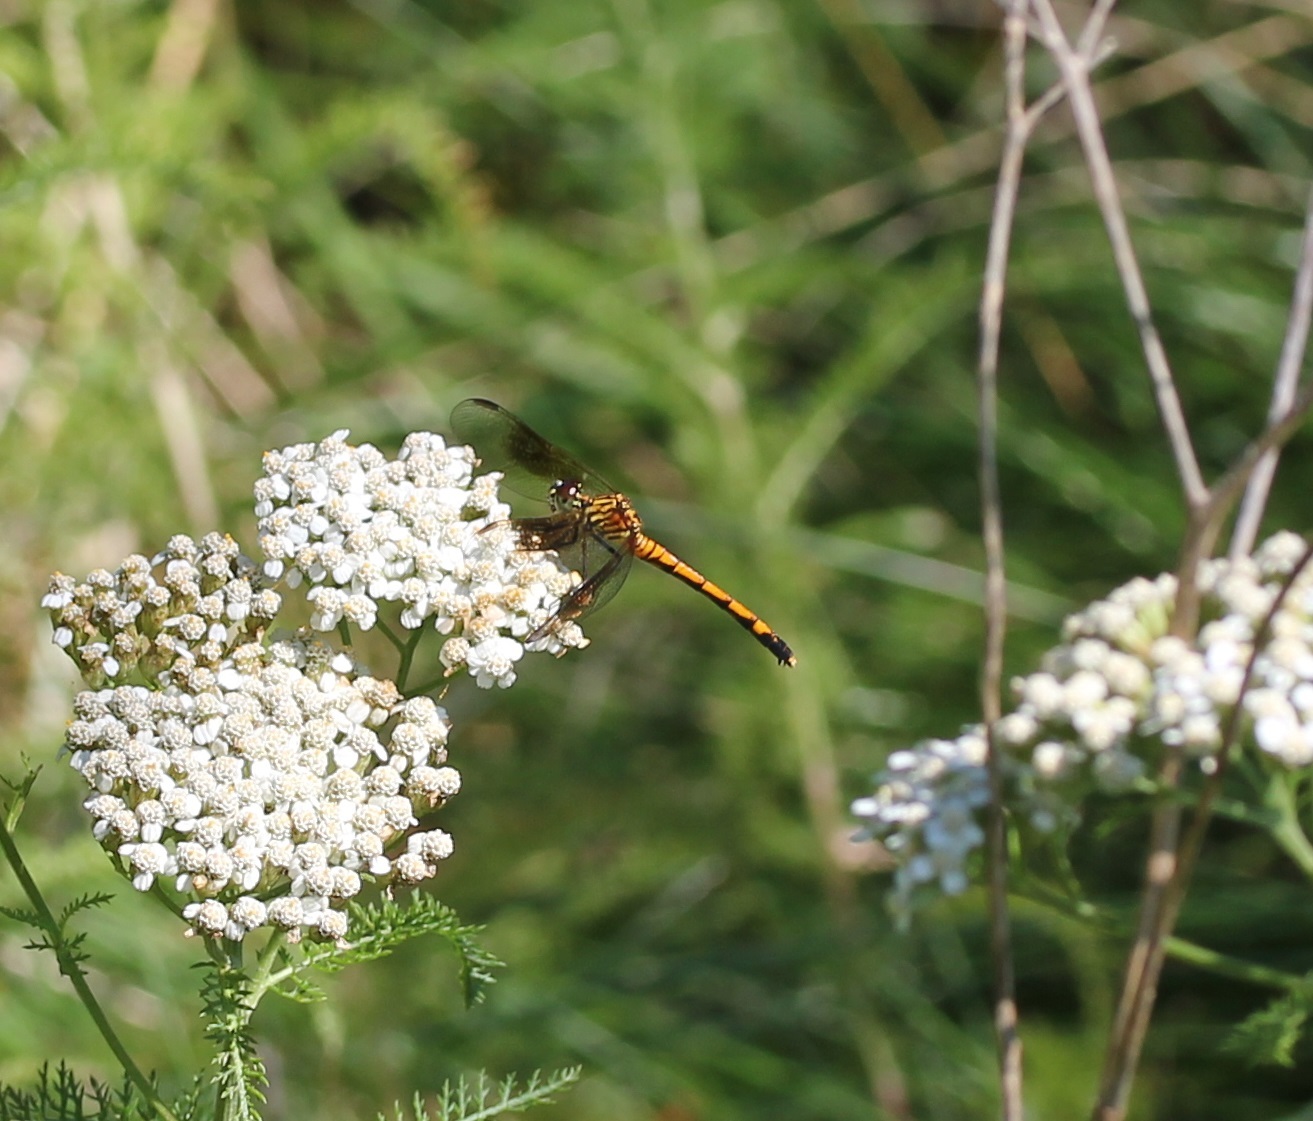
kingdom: Animalia
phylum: Arthropoda
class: Insecta
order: Odonata
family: Libellulidae
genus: Erythrodiplax
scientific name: Erythrodiplax berenice
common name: Seaside dragonlet
